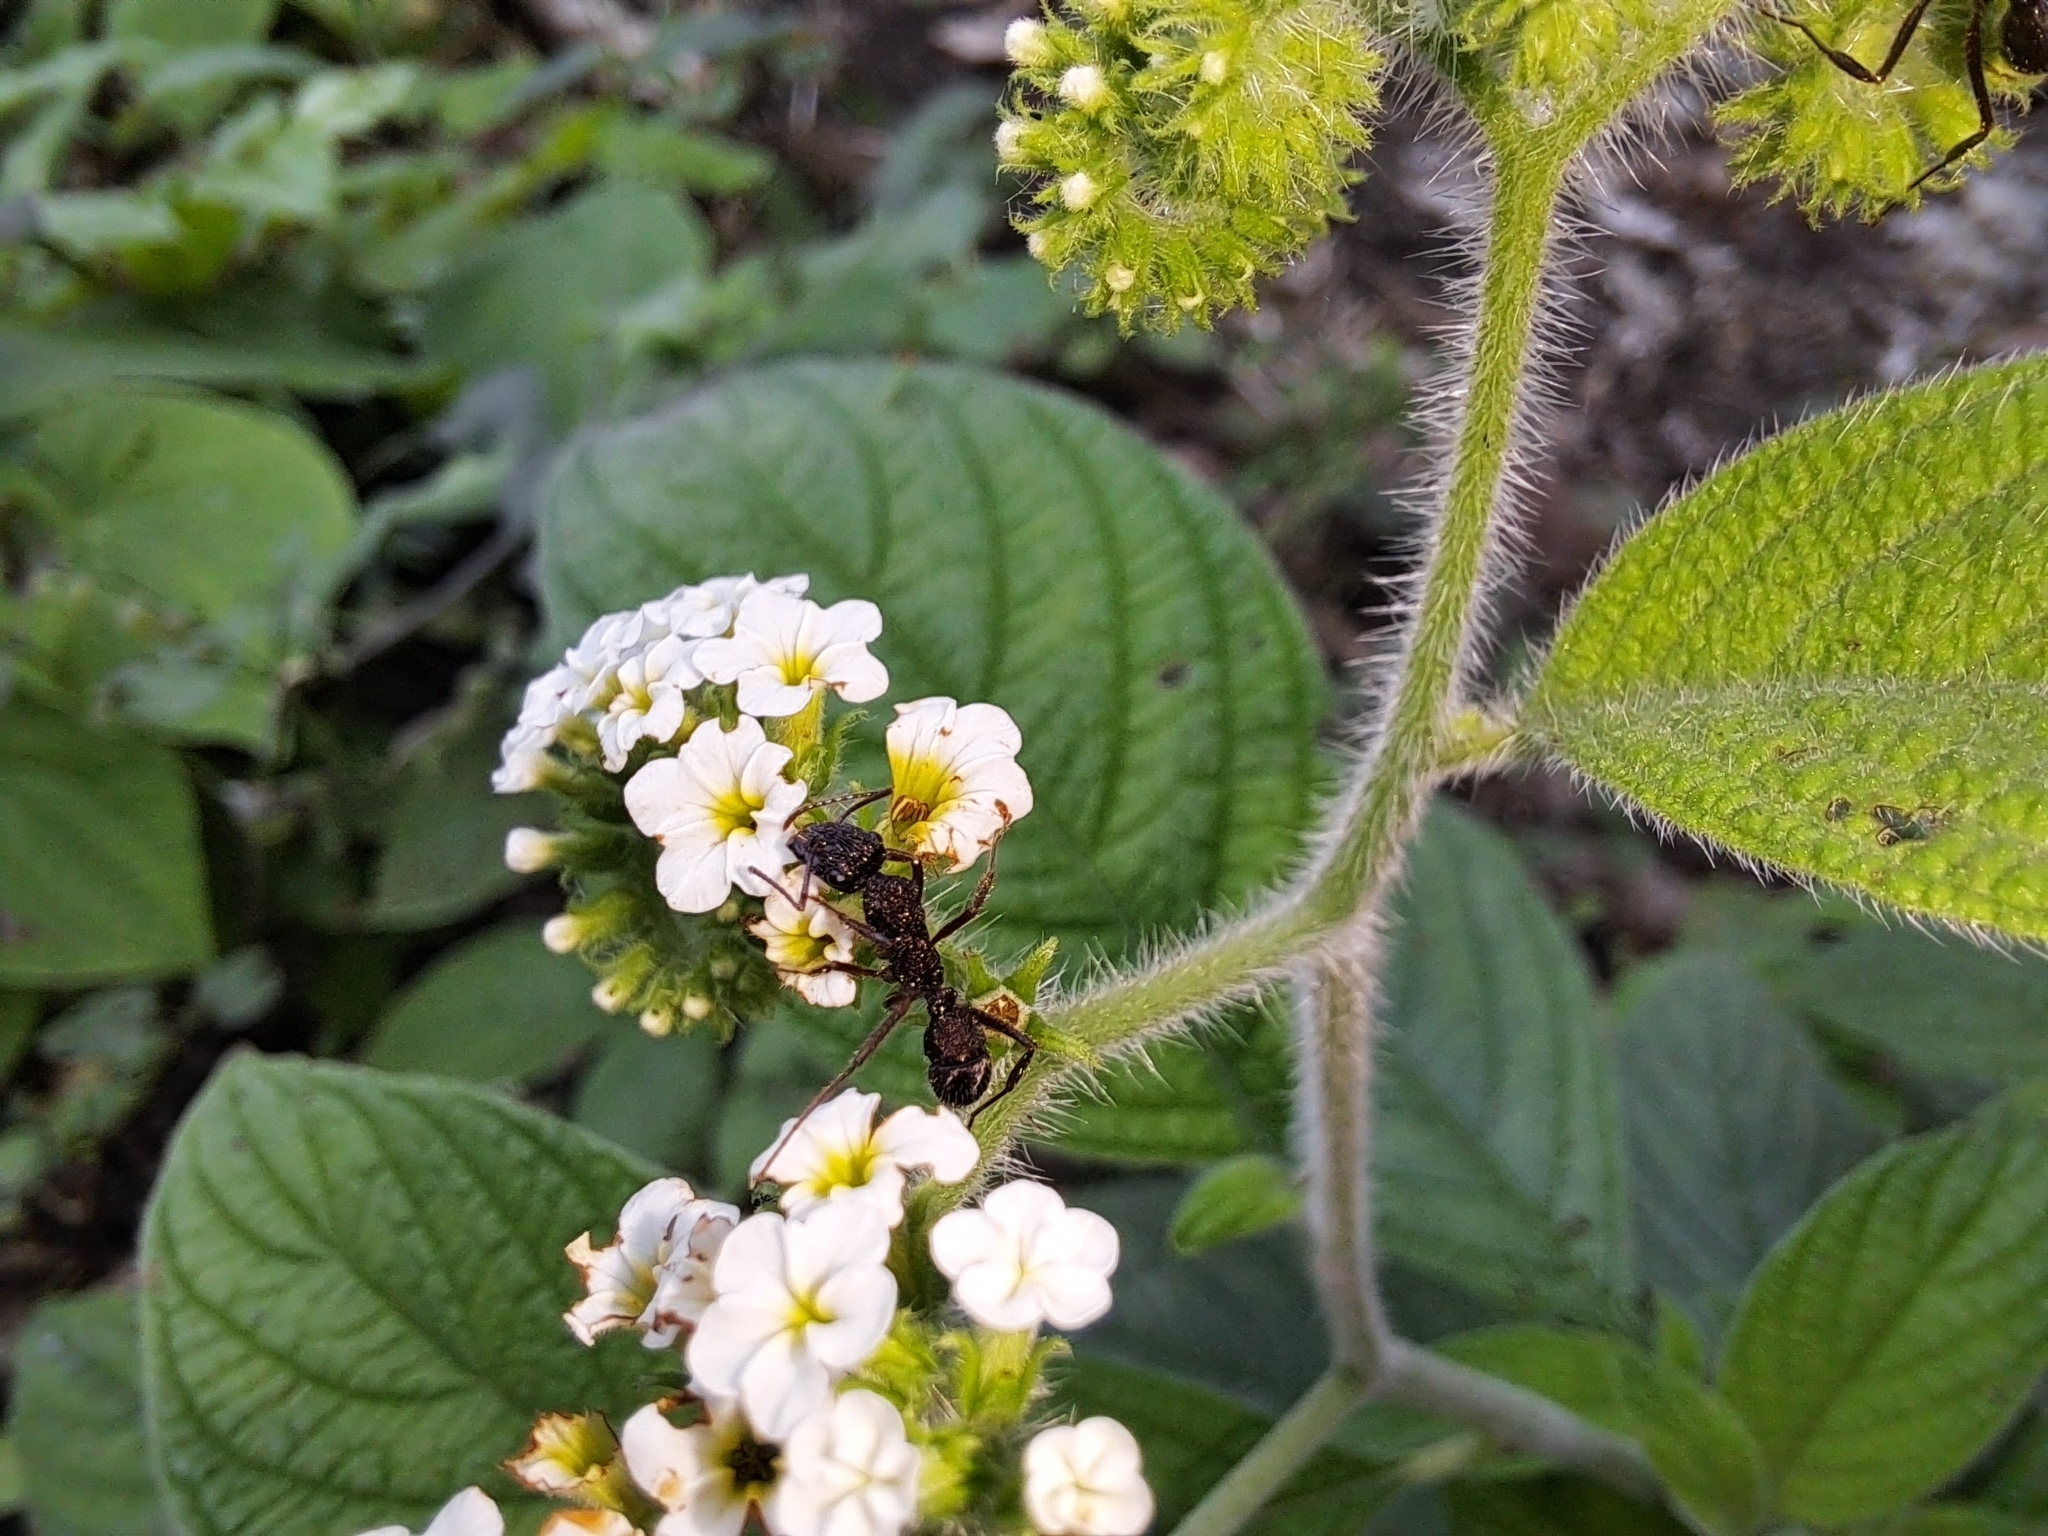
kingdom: Plantae
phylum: Tracheophyta
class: Magnoliopsida
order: Boraginales
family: Heliotropiaceae
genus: Heliotropium
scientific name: Heliotropium rufipilum
